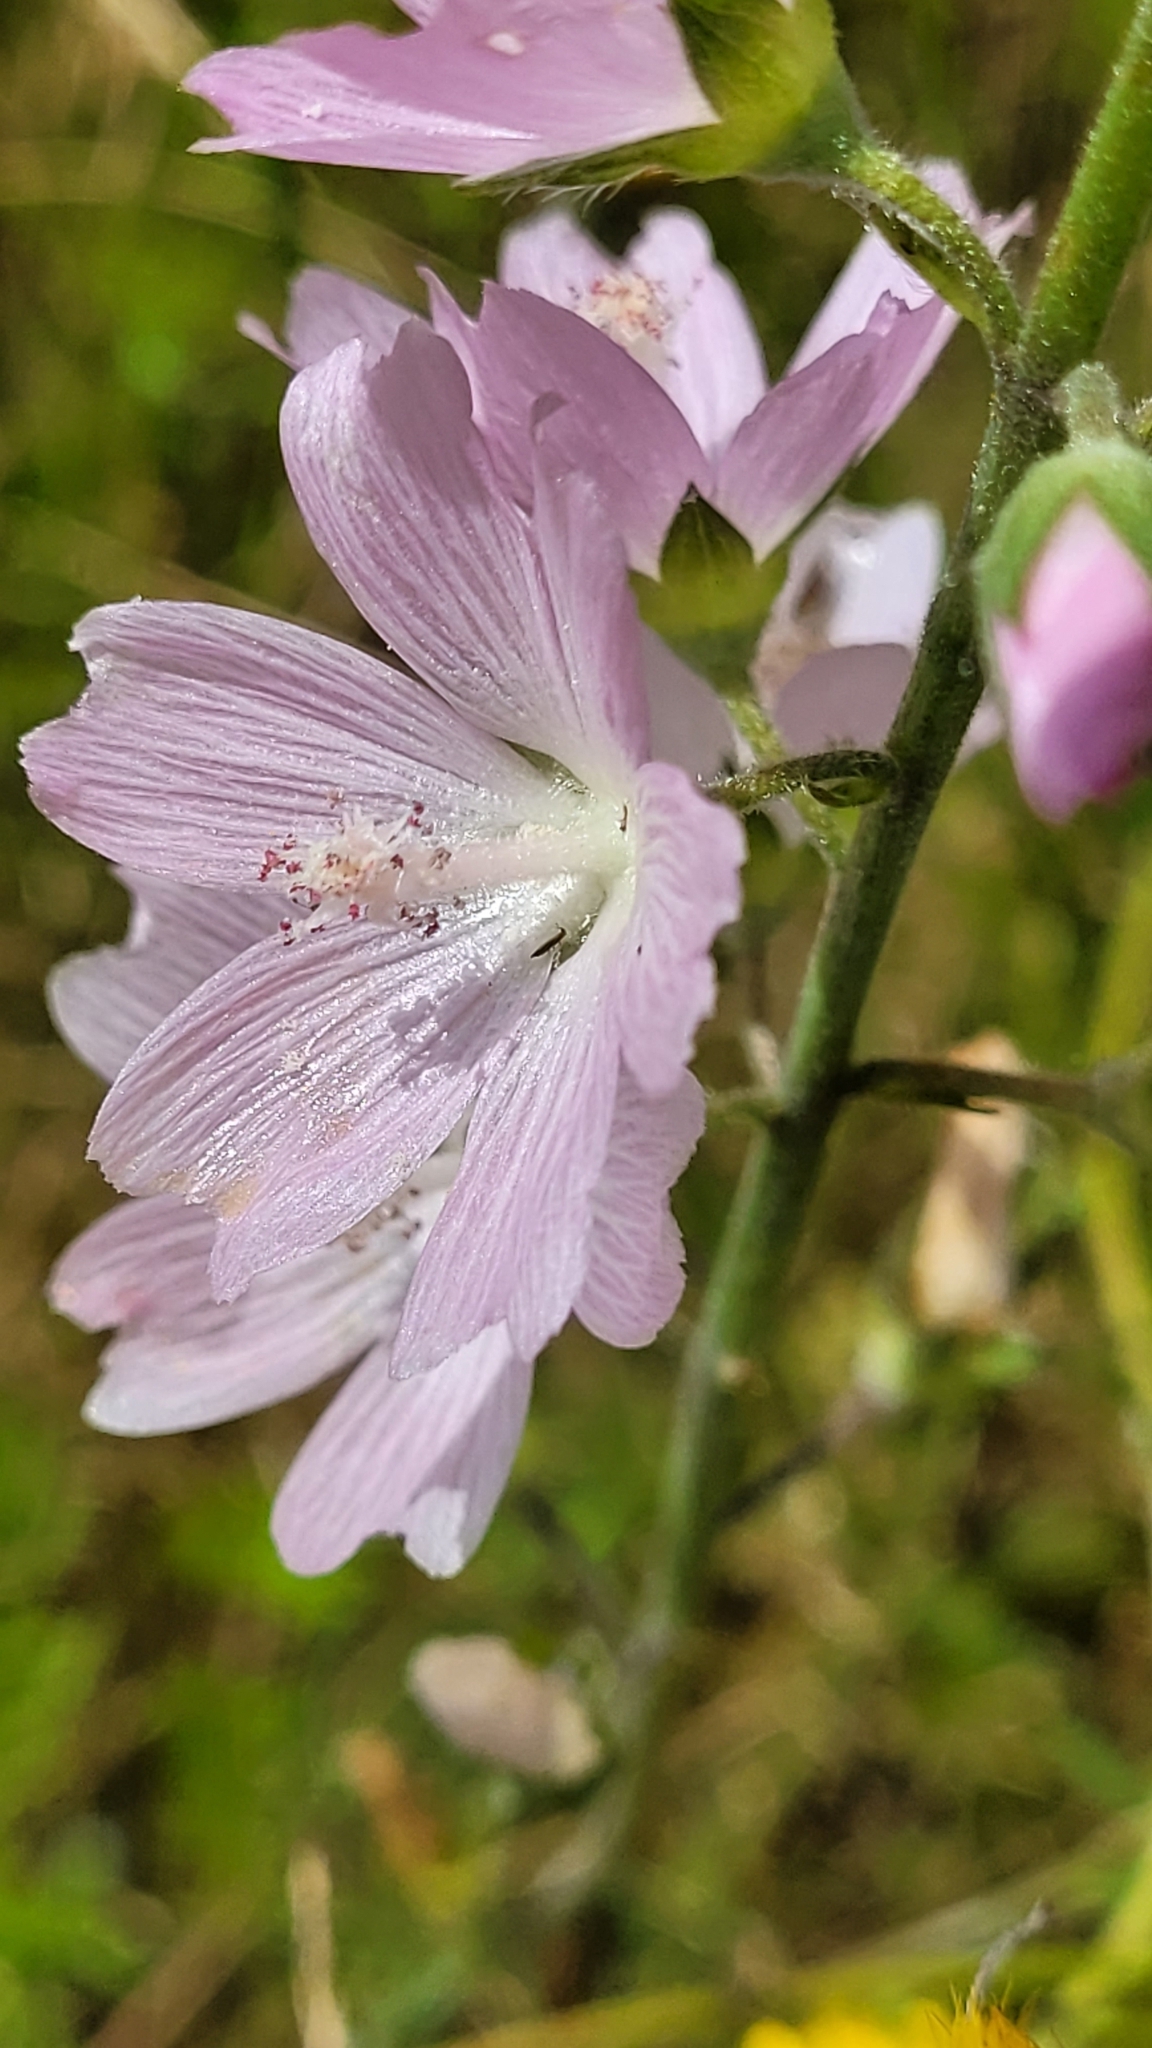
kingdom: Plantae
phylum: Tracheophyta
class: Magnoliopsida
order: Malvales
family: Malvaceae
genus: Sidalcea
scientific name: Sidalcea campestris
